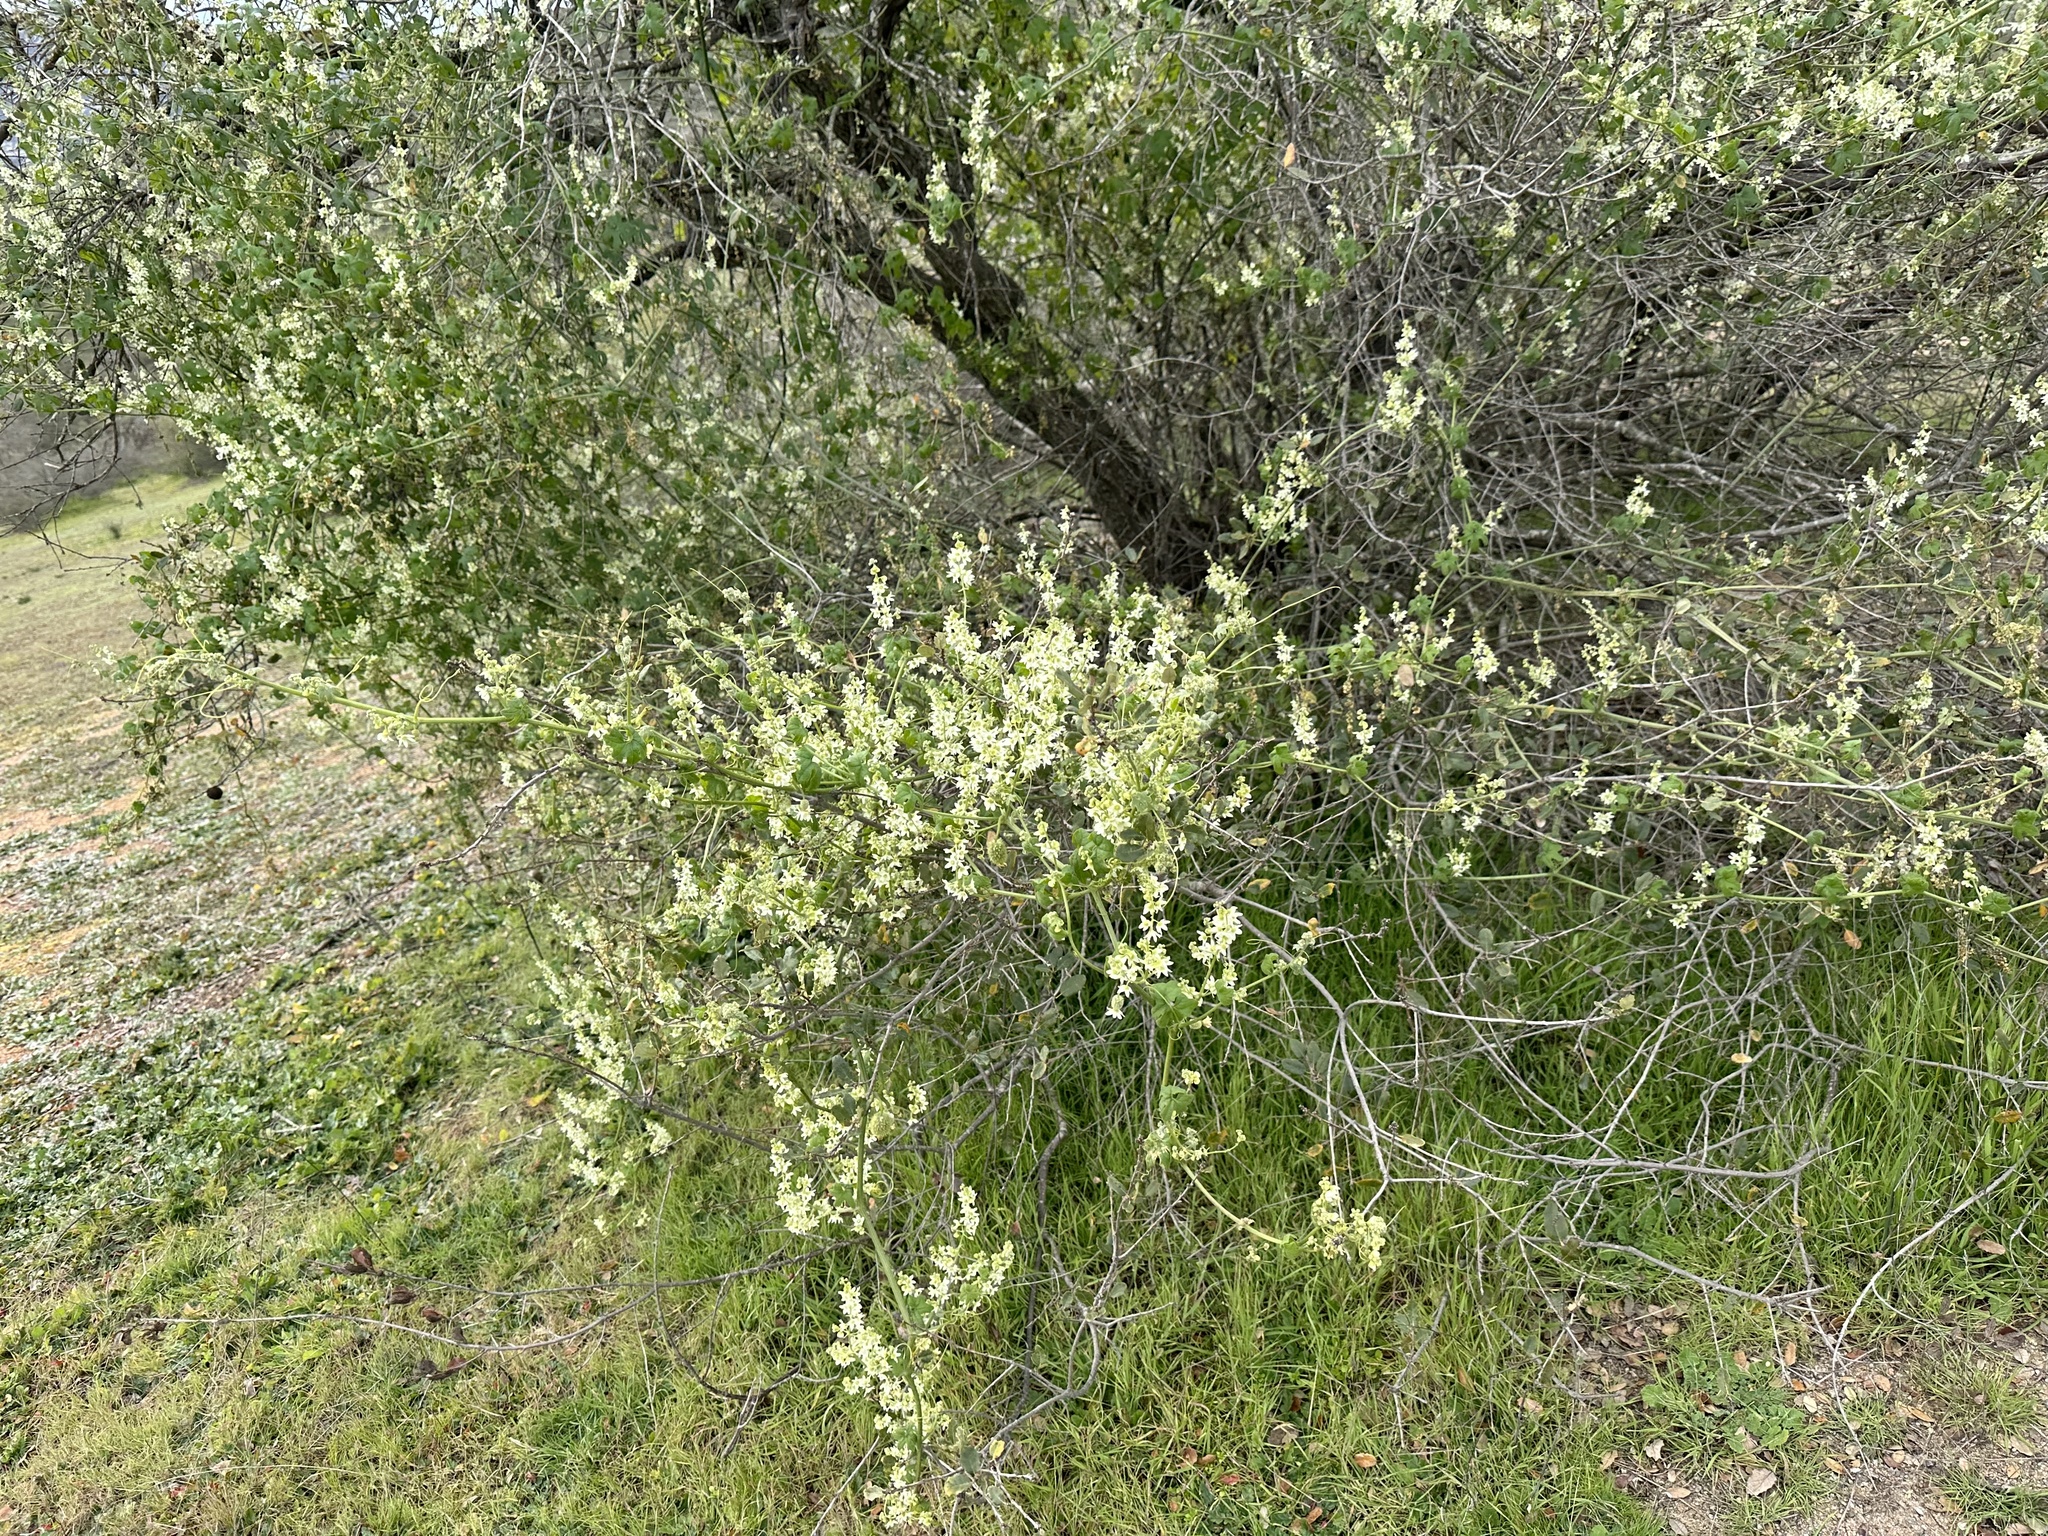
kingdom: Plantae
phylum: Tracheophyta
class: Magnoliopsida
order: Cucurbitales
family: Cucurbitaceae
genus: Marah
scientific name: Marah macrocarpa
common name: Cucamonga manroot
